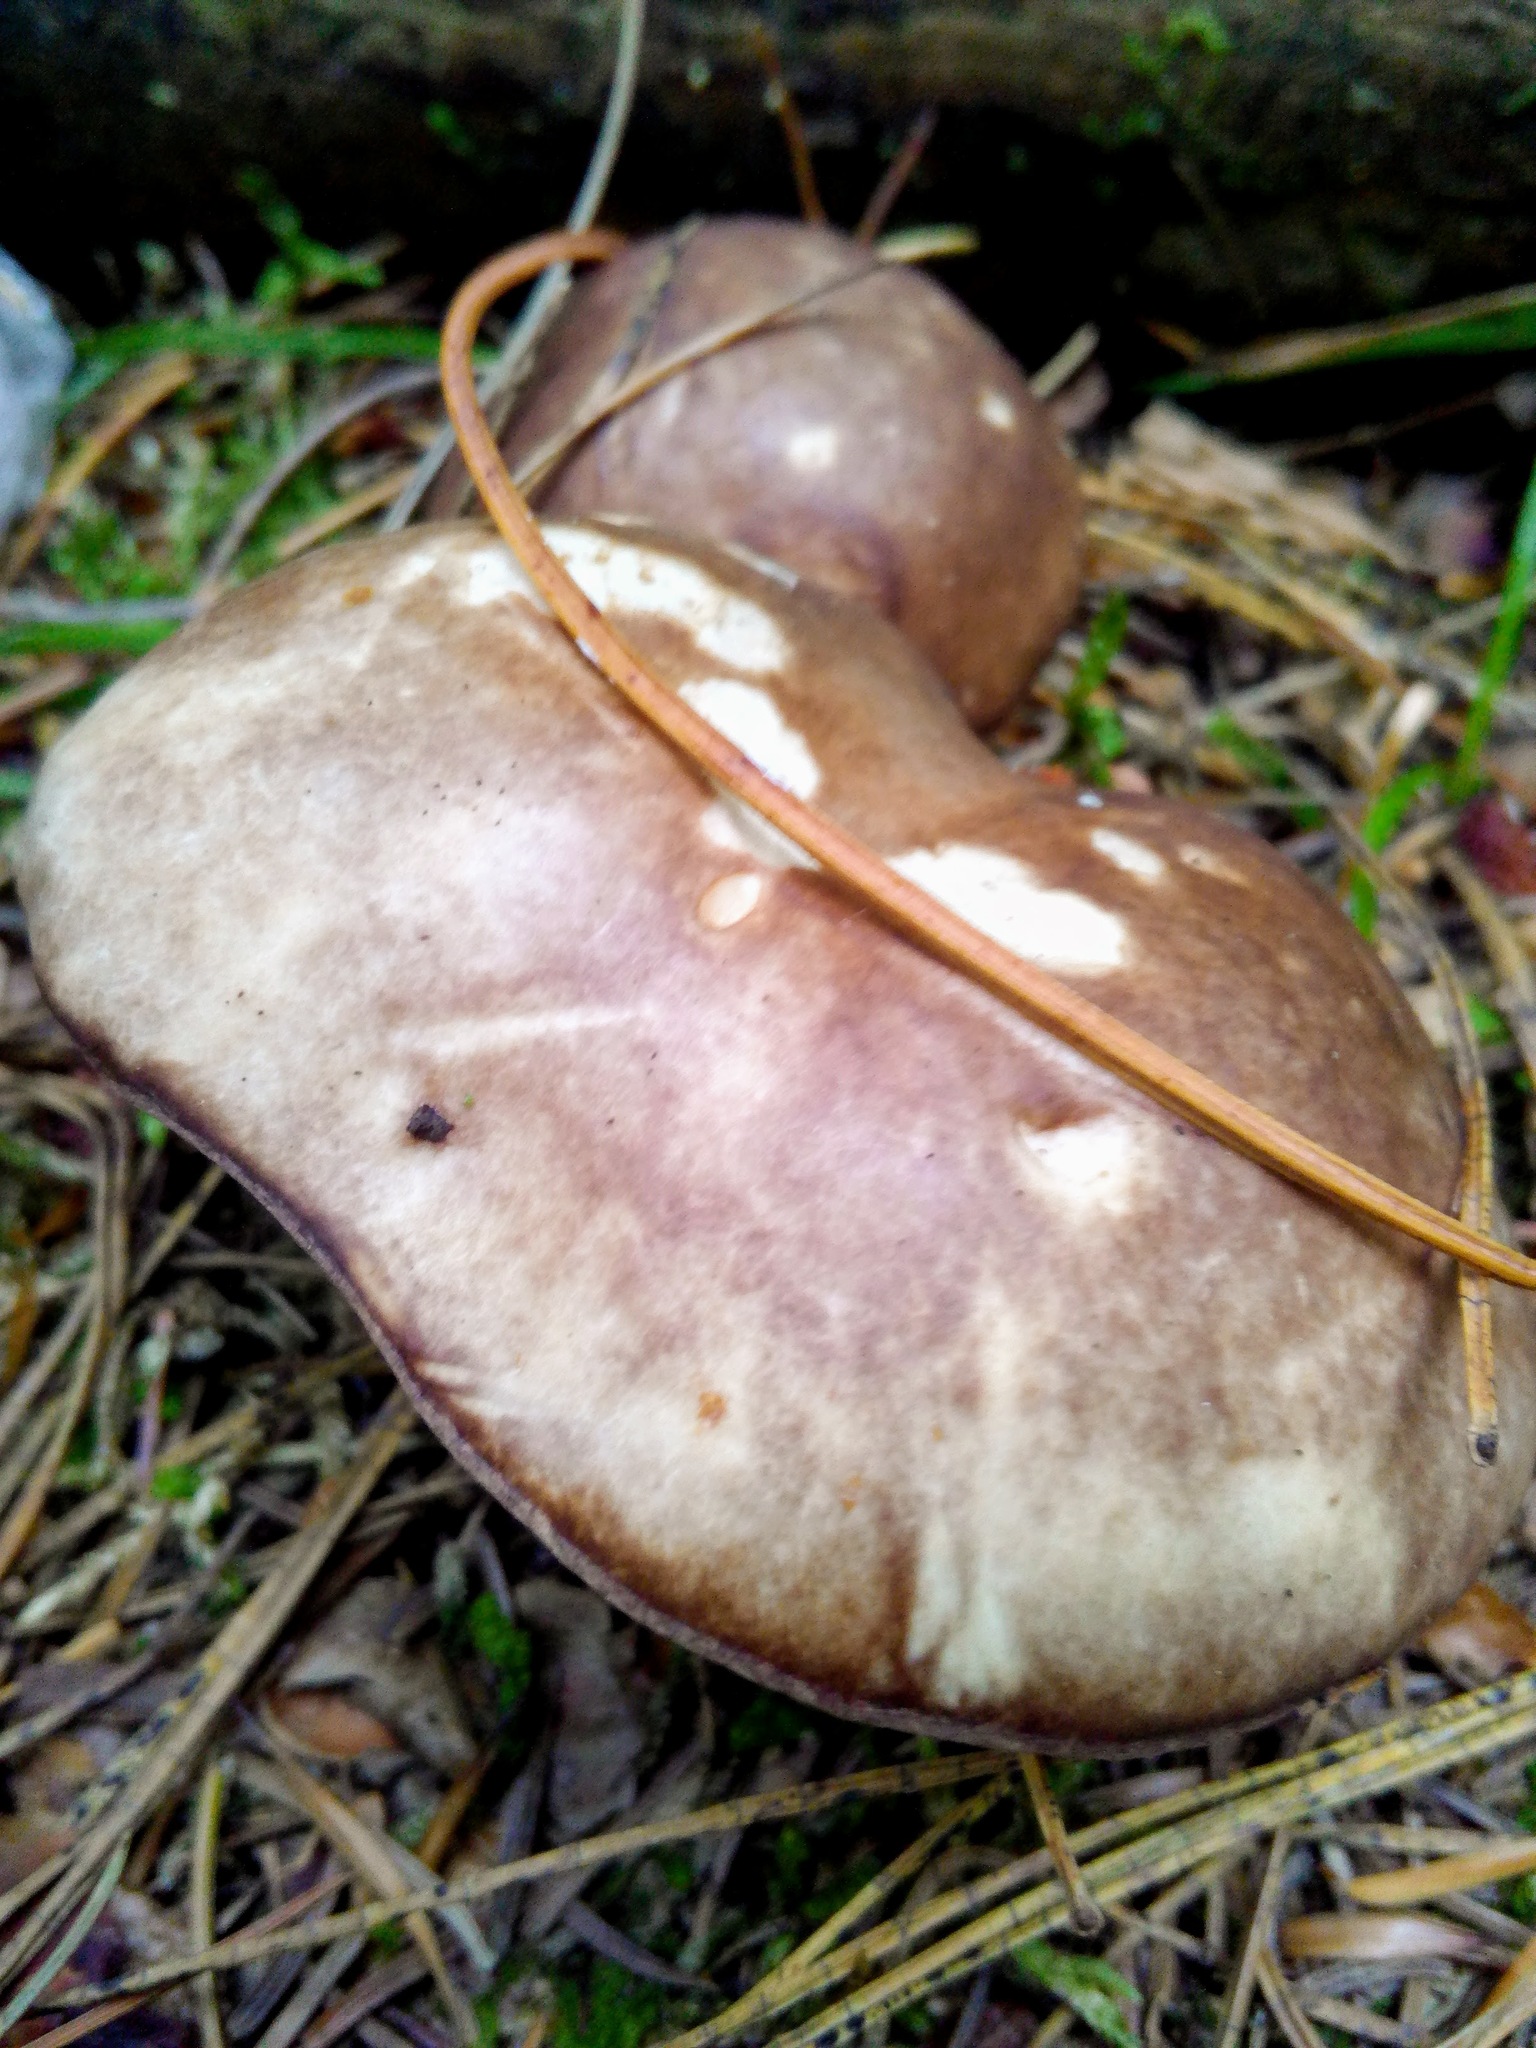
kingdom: Fungi
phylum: Basidiomycota
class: Agaricomycetes
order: Boletales
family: Suillaceae
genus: Suillus
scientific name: Suillus placidus
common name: Slippery white bolete
